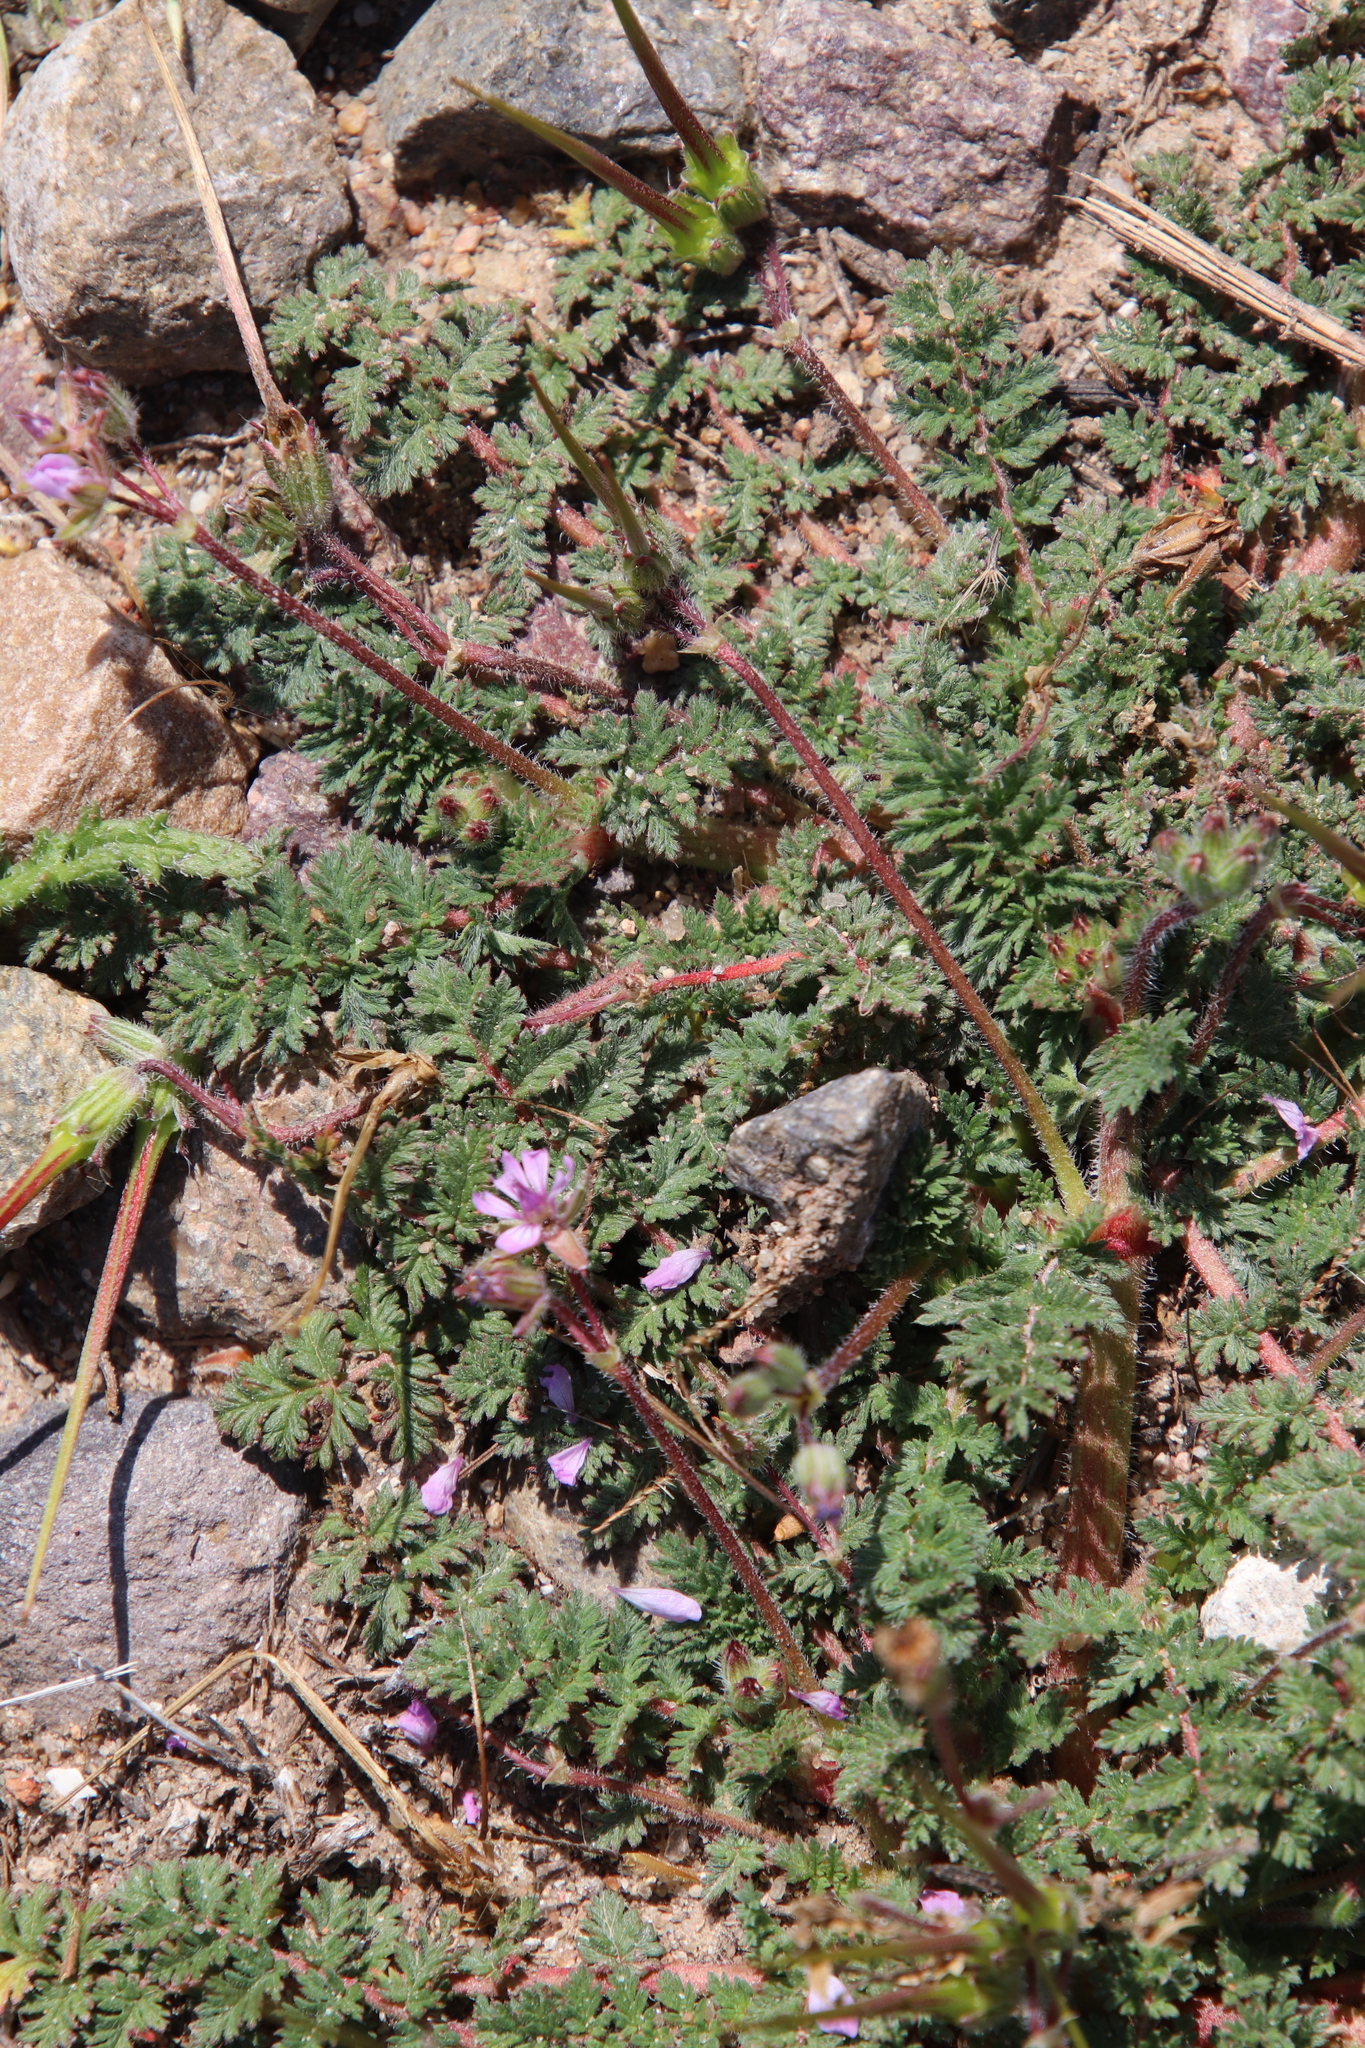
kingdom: Plantae
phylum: Tracheophyta
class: Magnoliopsida
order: Geraniales
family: Geraniaceae
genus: Erodium
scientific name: Erodium cicutarium
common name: Common stork's-bill
